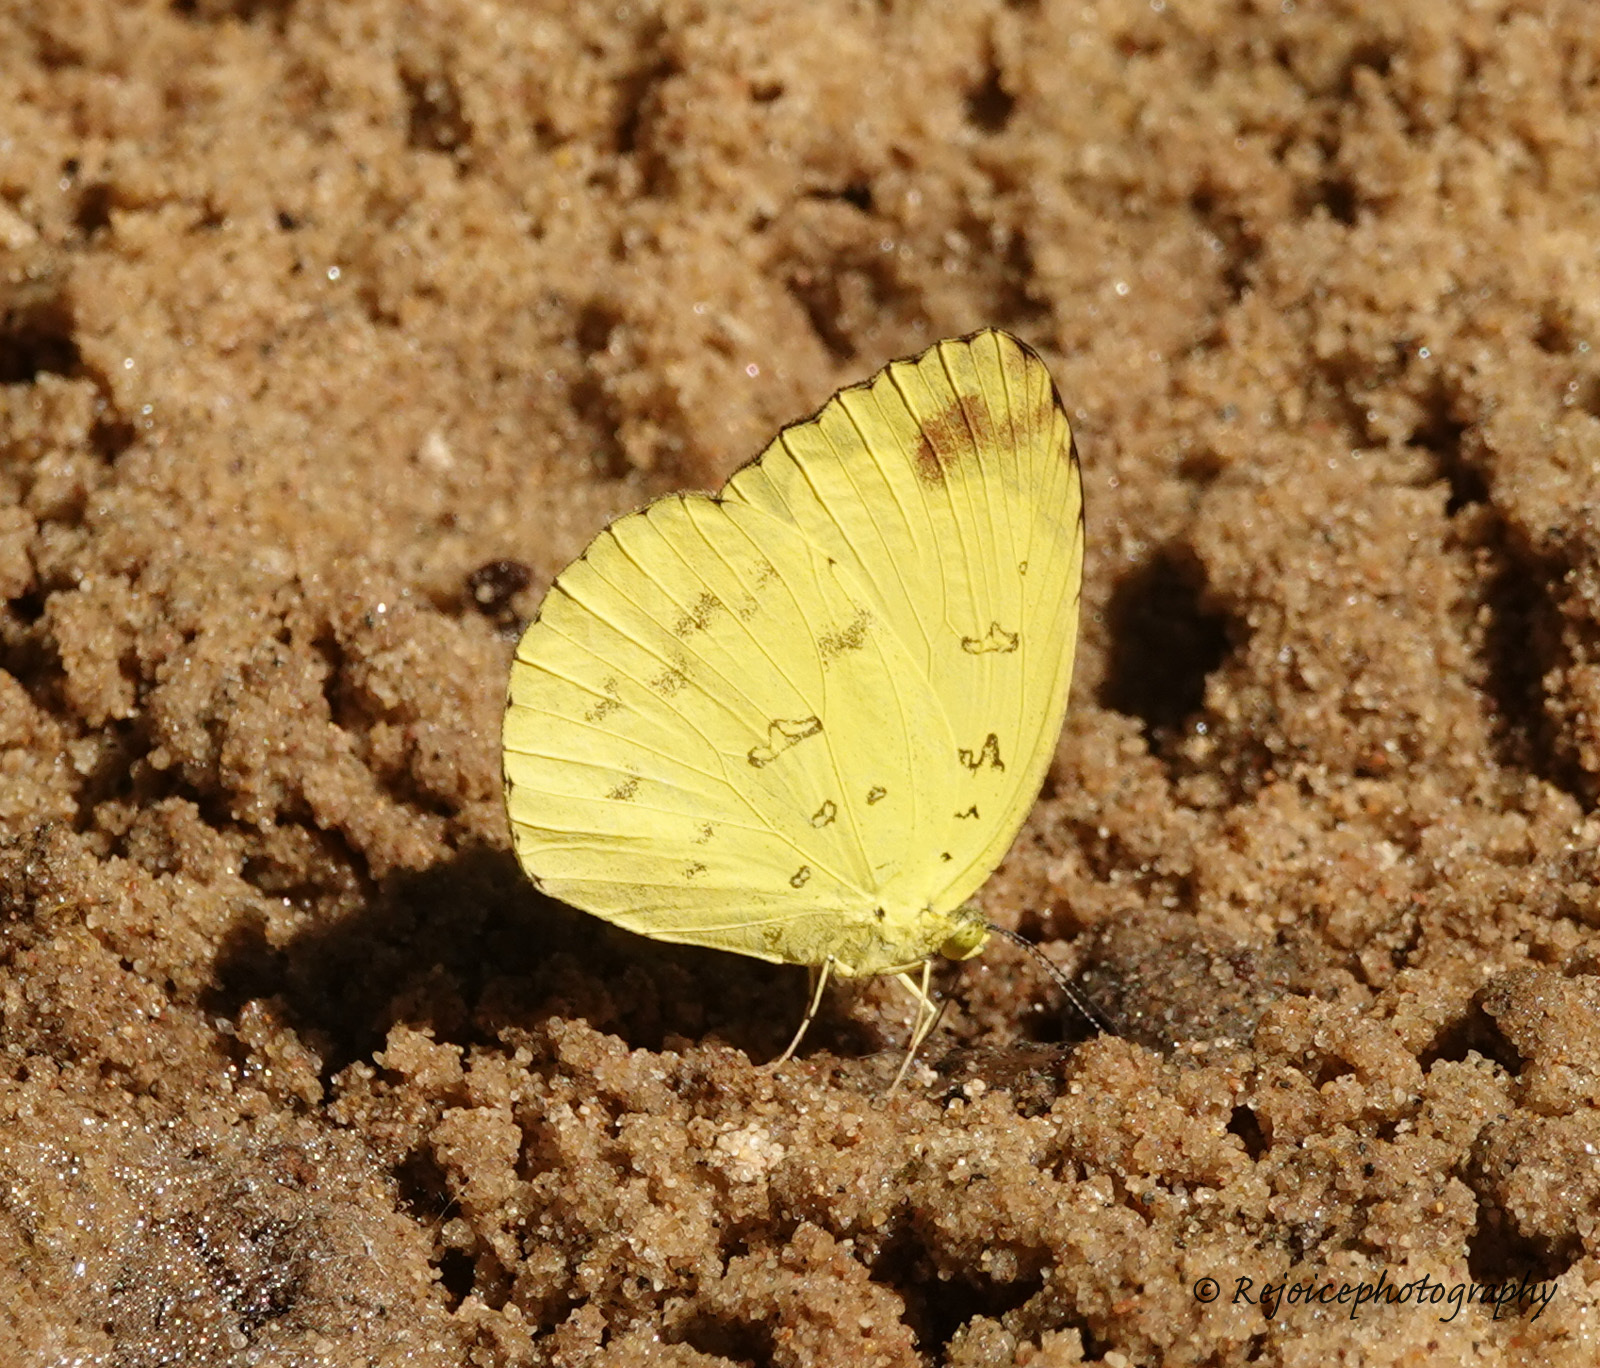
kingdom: Animalia
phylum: Arthropoda
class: Insecta
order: Lepidoptera
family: Pieridae
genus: Eurema
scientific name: Eurema blanda
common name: Three-spot grass yellow
